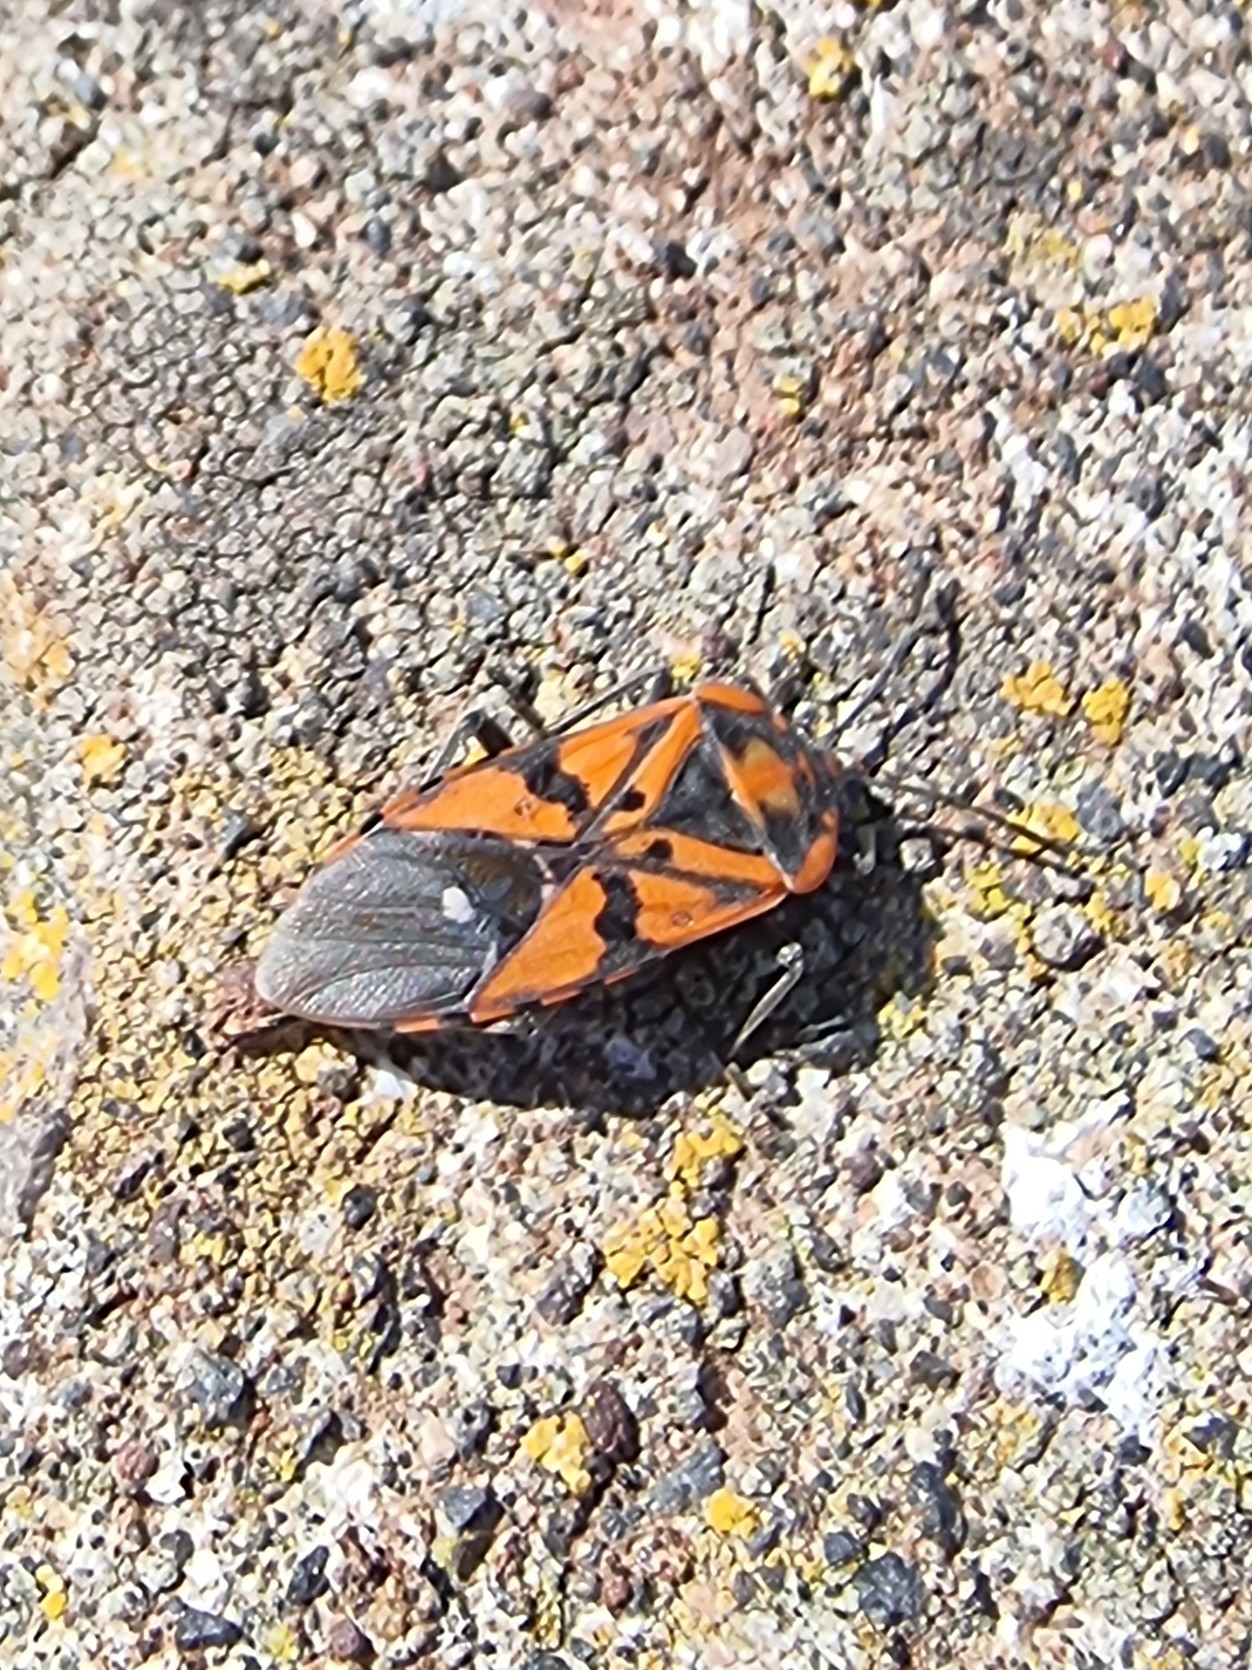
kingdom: Animalia
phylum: Arthropoda
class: Insecta
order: Hemiptera
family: Lygaeidae
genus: Spilostethus
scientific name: Spilostethus pandurus
